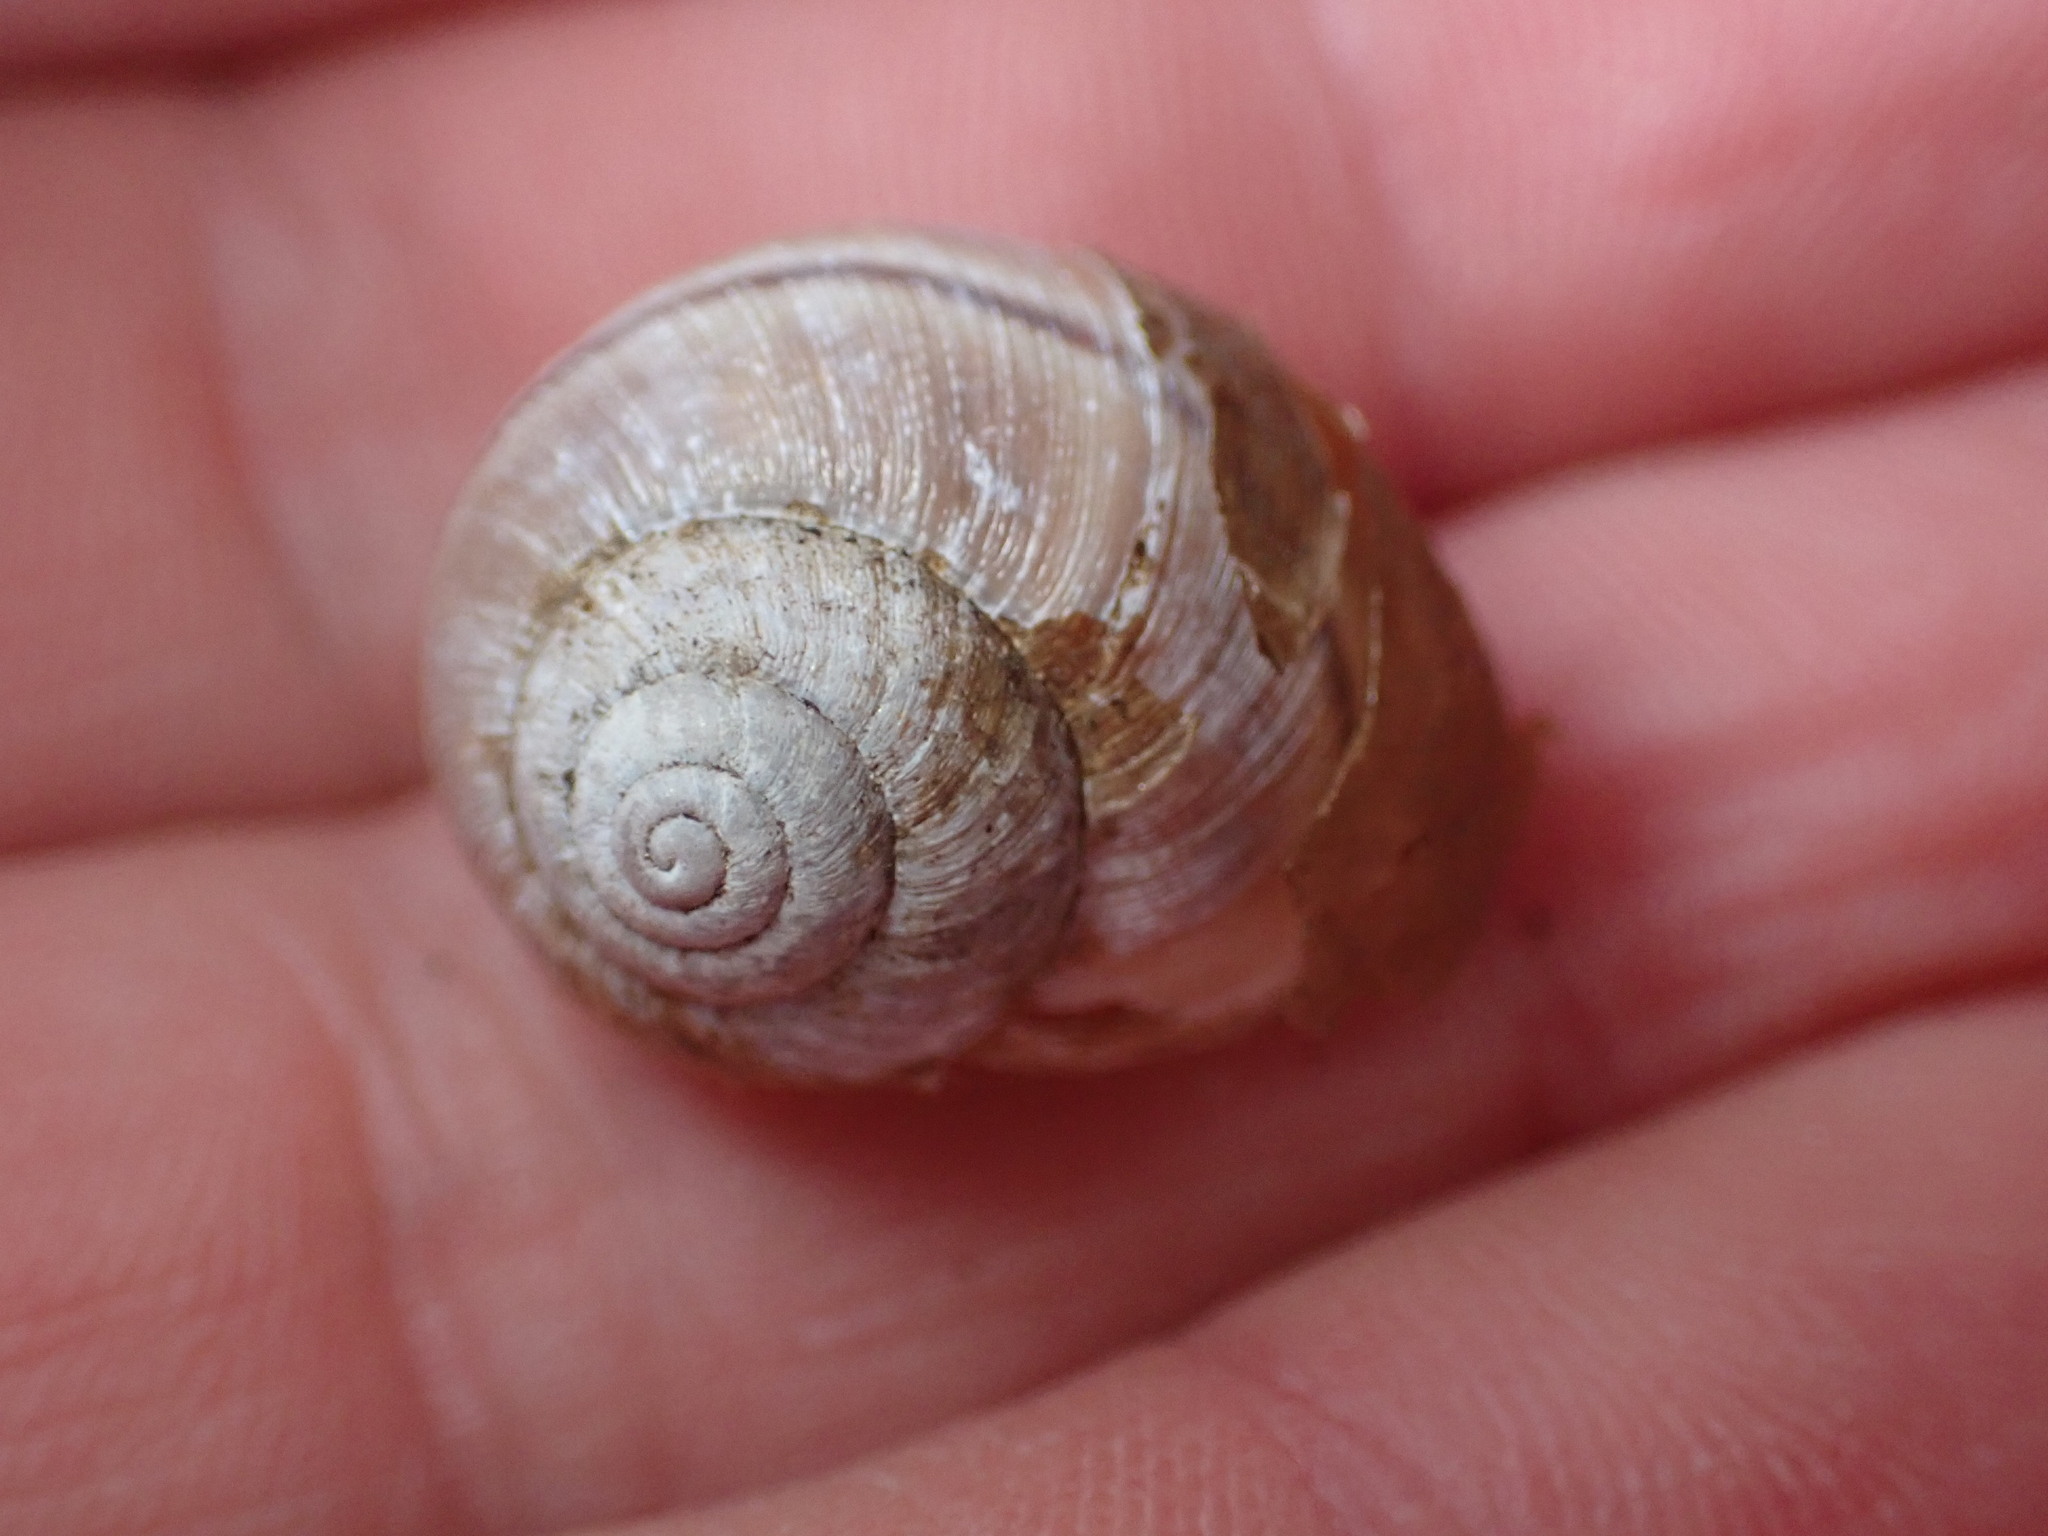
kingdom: Animalia
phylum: Mollusca
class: Gastropoda
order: Stylommatophora
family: Xanthonychidae
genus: Helminthoglypta
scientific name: Helminthoglypta californiensis
